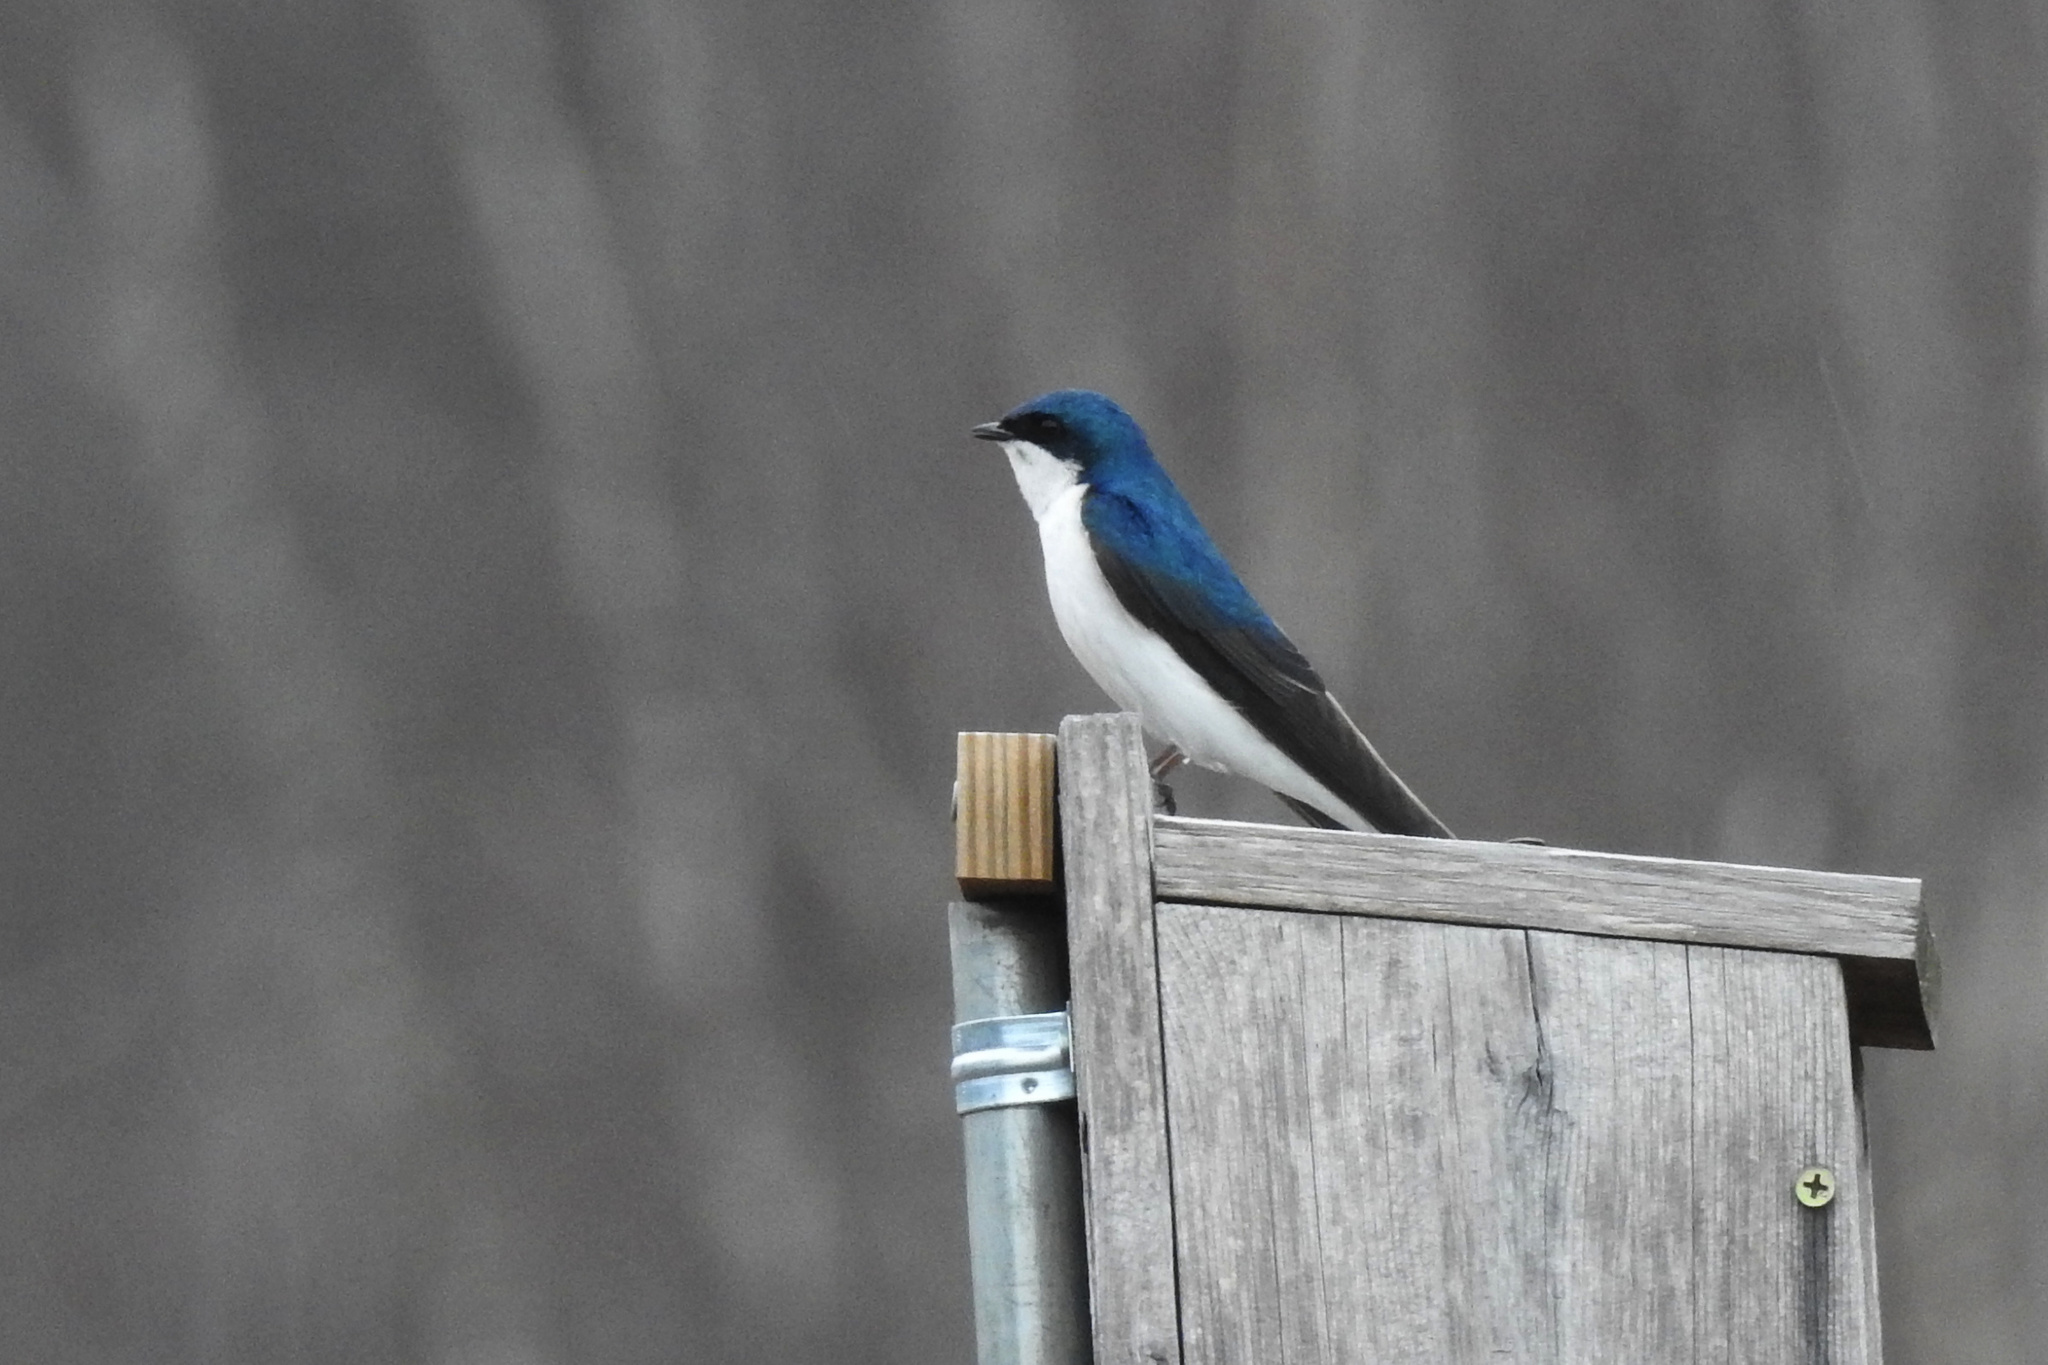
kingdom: Animalia
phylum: Chordata
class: Aves
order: Passeriformes
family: Hirundinidae
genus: Tachycineta
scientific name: Tachycineta bicolor
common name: Tree swallow
